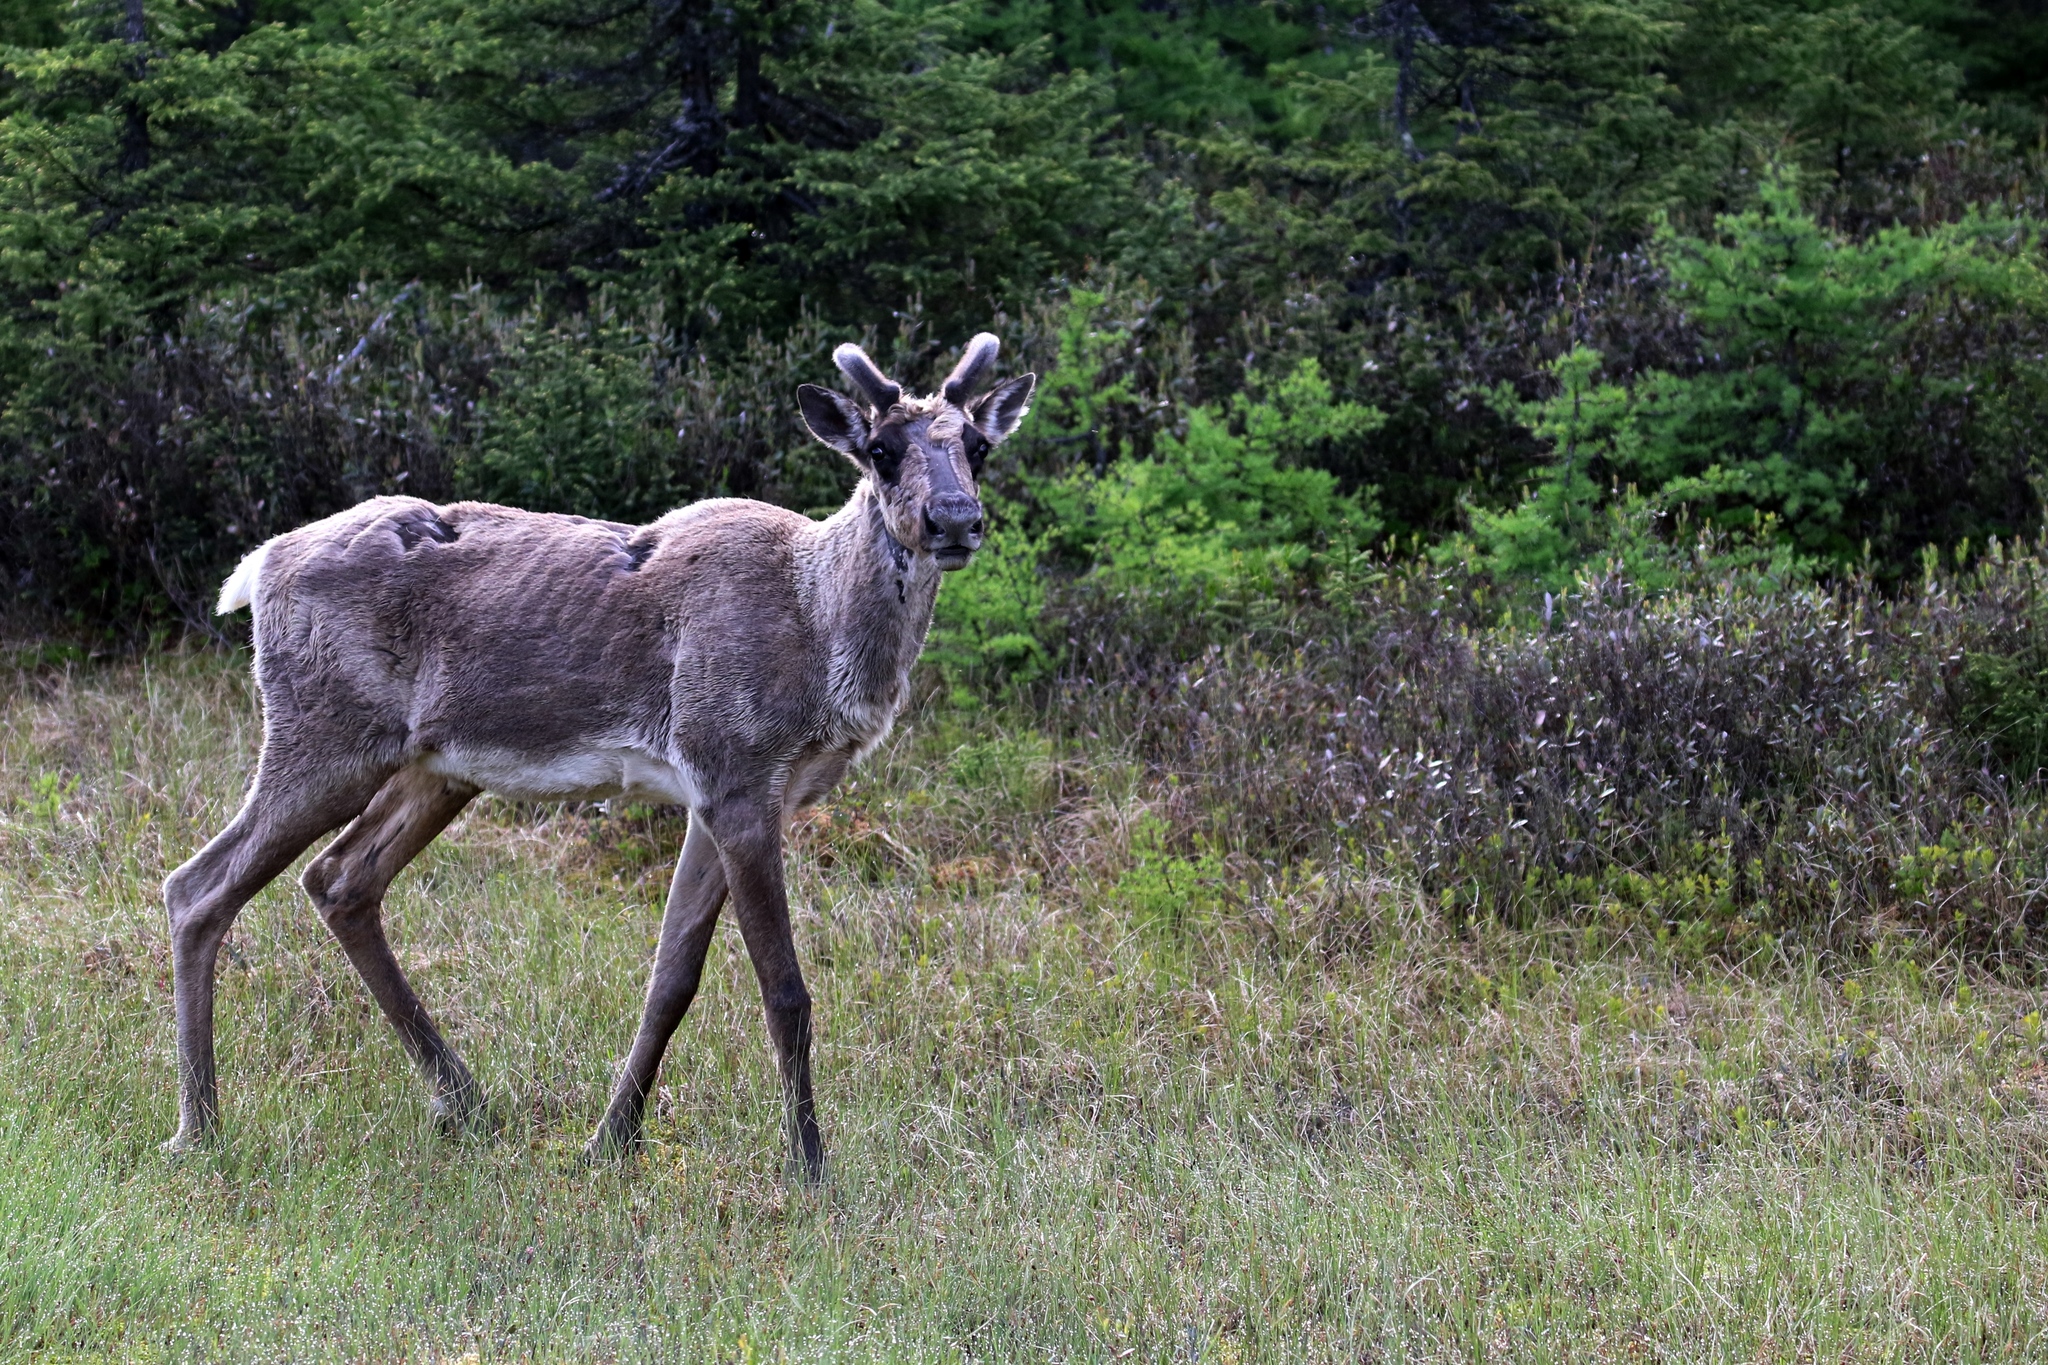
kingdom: Animalia
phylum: Chordata
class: Mammalia
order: Artiodactyla
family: Cervidae
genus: Rangifer
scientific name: Rangifer tarandus
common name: Reindeer
